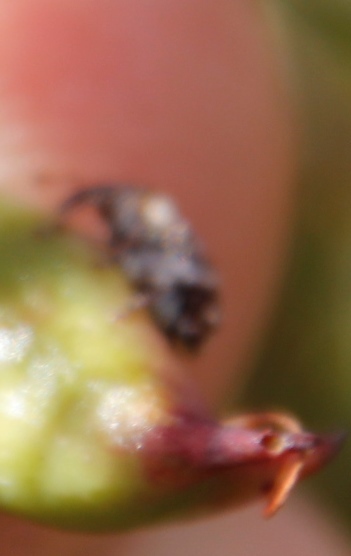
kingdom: Animalia
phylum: Arthropoda
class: Insecta
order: Coleoptera
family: Curculionidae
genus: Erytenna
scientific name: Erytenna consputa
